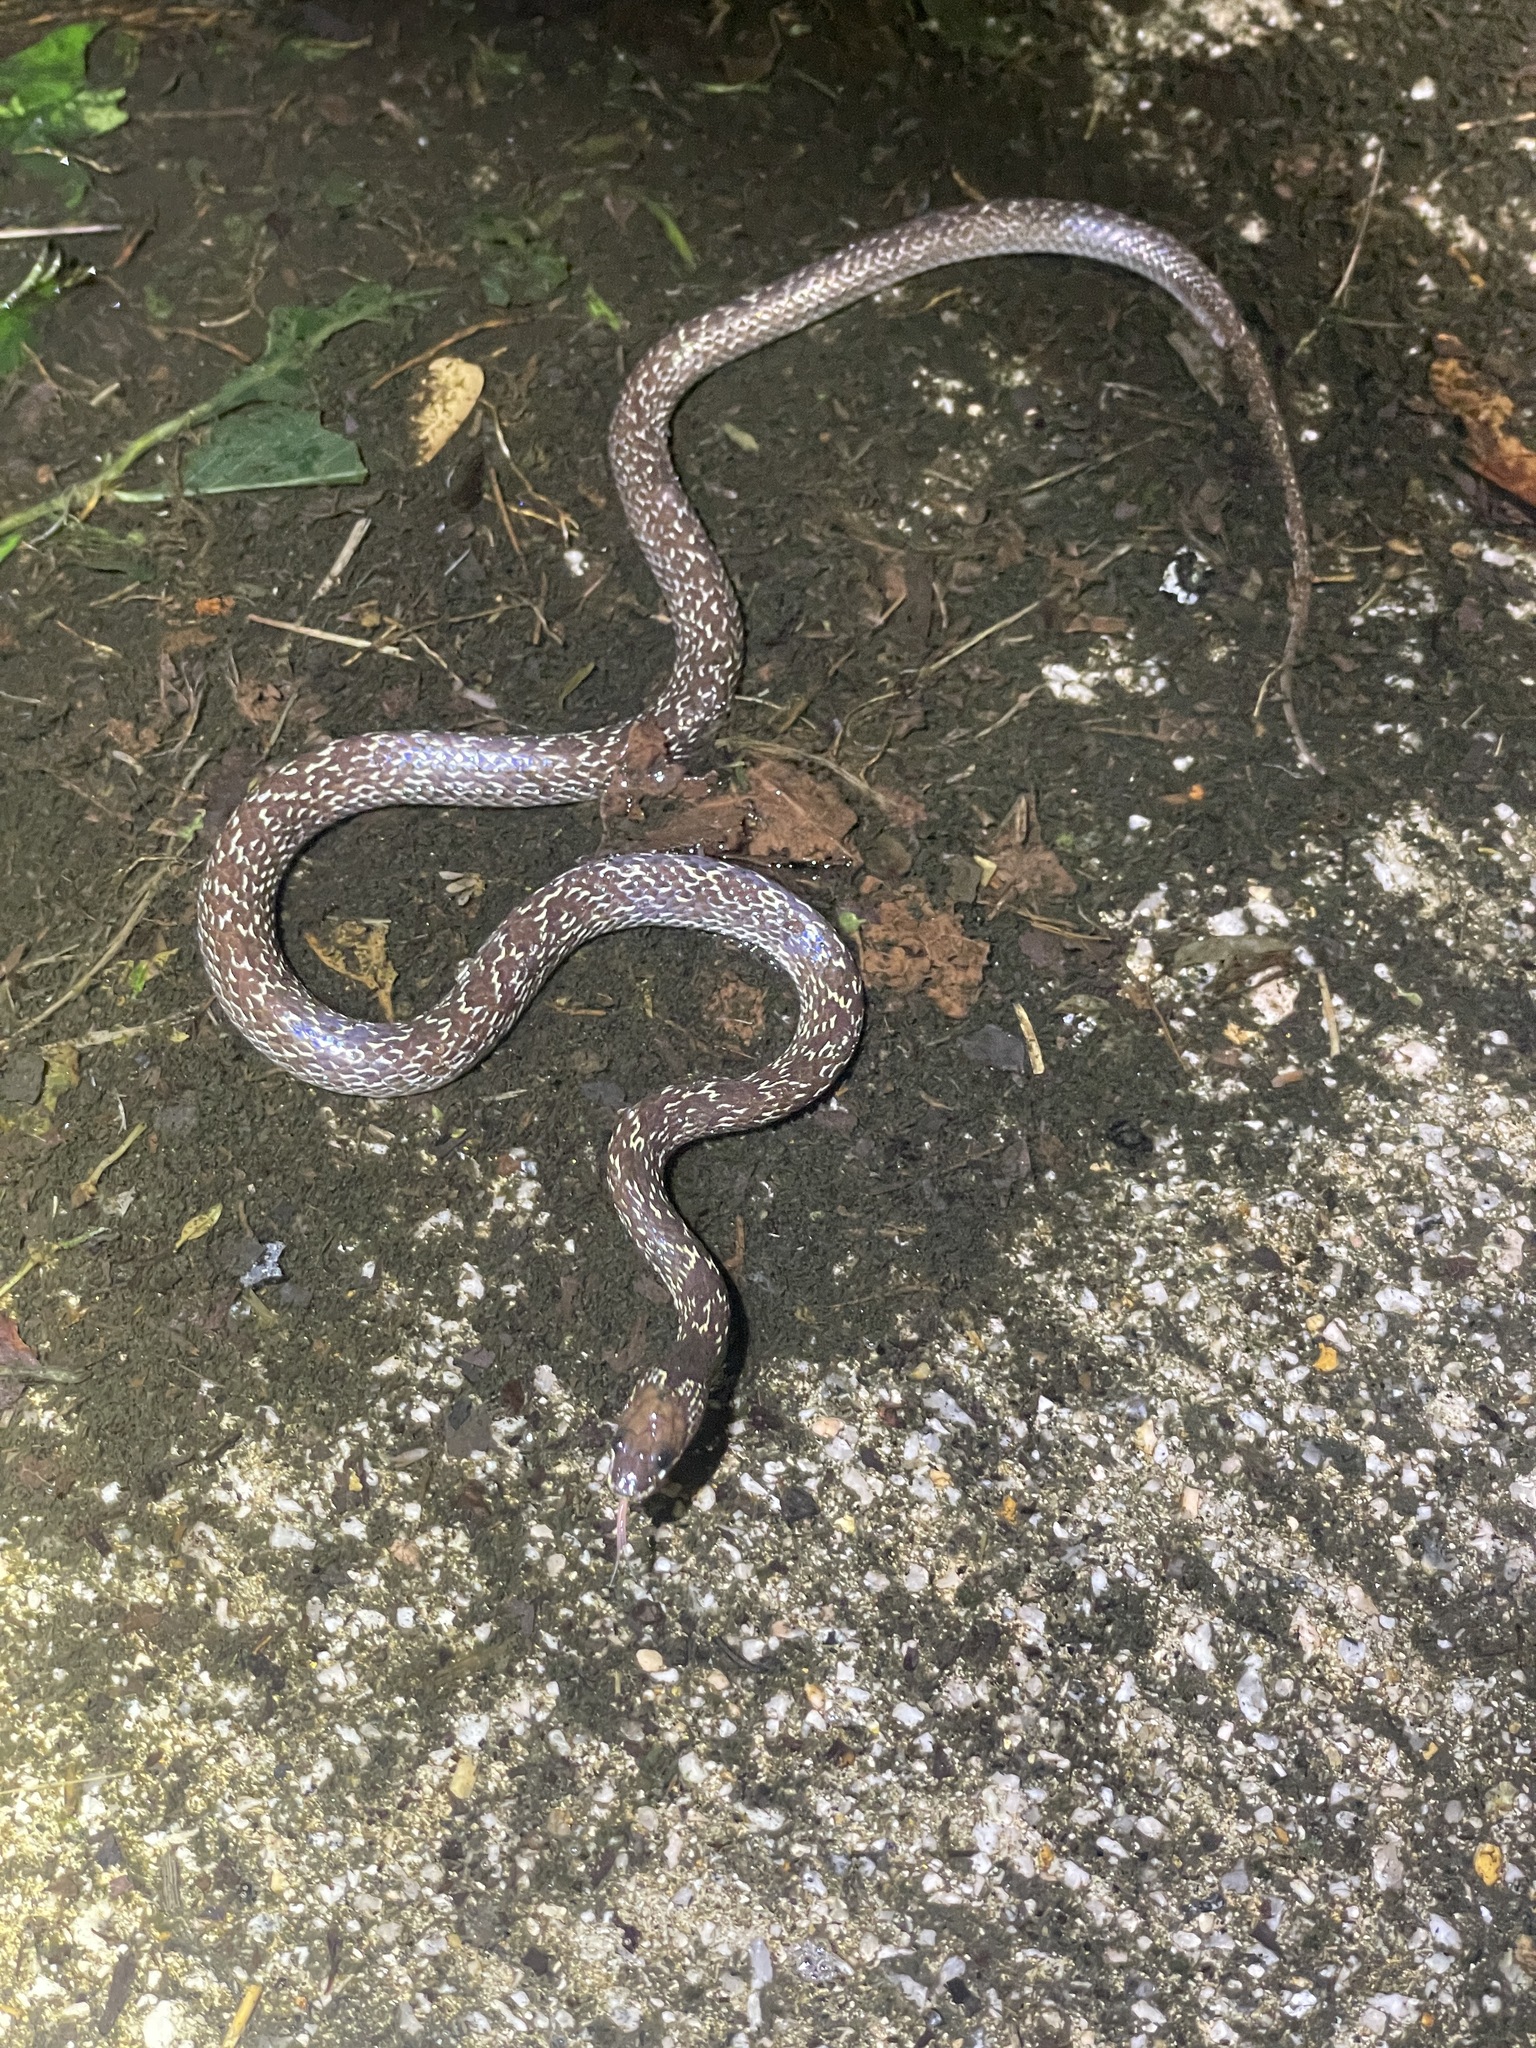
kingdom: Animalia
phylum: Chordata
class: Squamata
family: Colubridae
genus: Lycodon
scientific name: Lycodon capucinus
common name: Common wold snake/house snake
